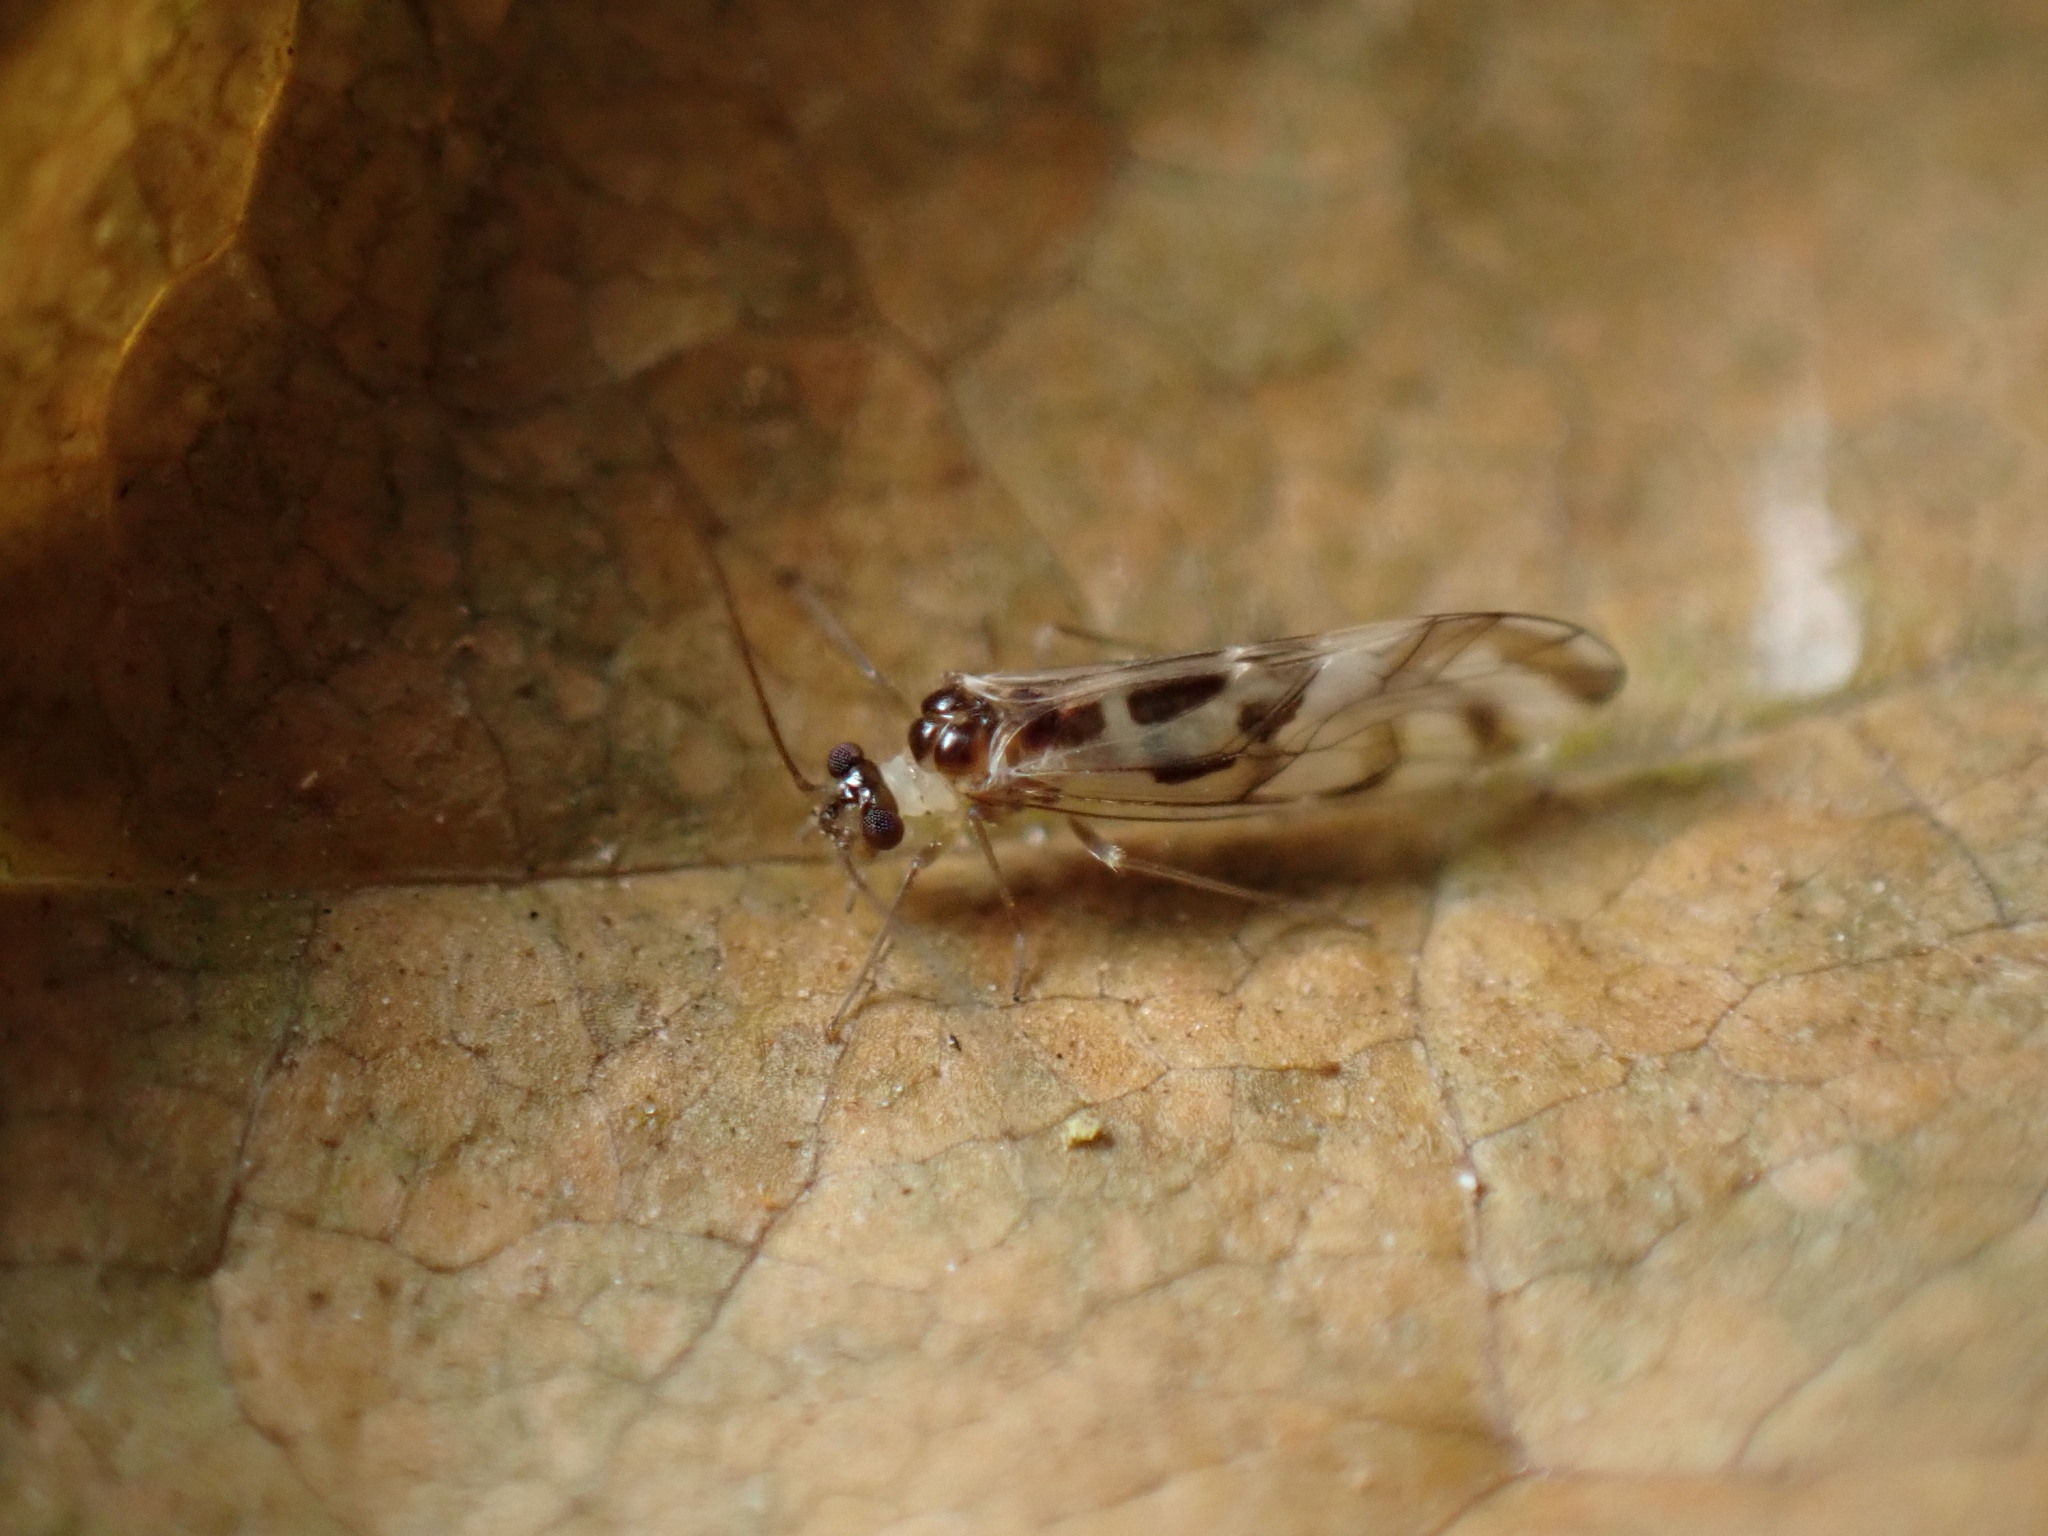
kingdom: Animalia
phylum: Arthropoda
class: Insecta
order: Psocodea
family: Stenopsocidae
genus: Graphopsocus
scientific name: Graphopsocus cruciatus
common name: Lizard bark louse
